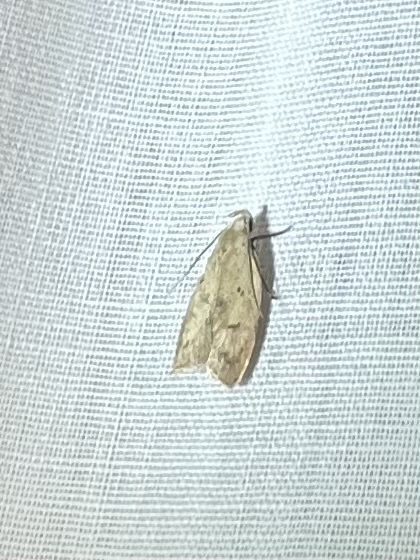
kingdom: Animalia
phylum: Arthropoda
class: Insecta
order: Lepidoptera
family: Peleopodidae
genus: Machimia
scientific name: Machimia tentoriferella
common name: Gold-striped leaftier moth
